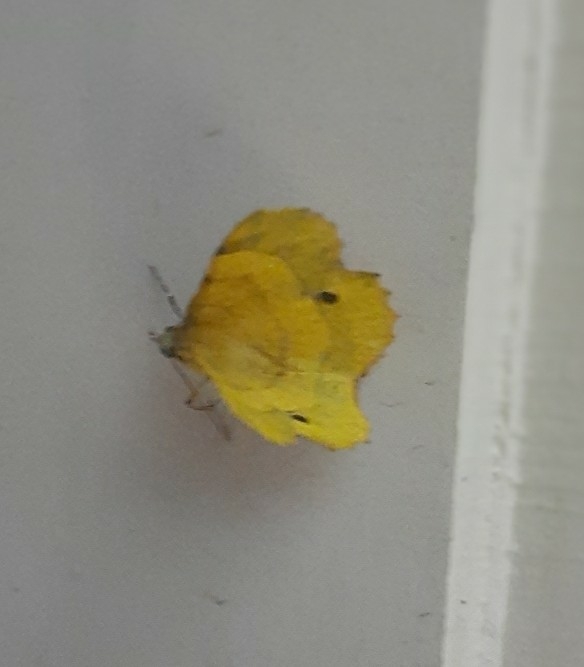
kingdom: Animalia
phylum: Arthropoda
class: Insecta
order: Lepidoptera
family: Geometridae
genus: Hyperythra
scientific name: Hyperythra lutea
